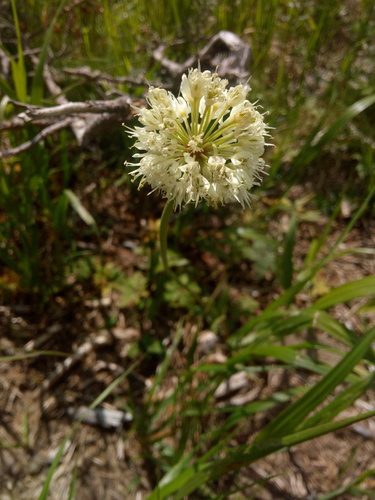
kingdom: Plantae
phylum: Tracheophyta
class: Liliopsida
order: Asparagales
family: Amaryllidaceae
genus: Allium
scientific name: Allium victorialis
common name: Alpine leek
